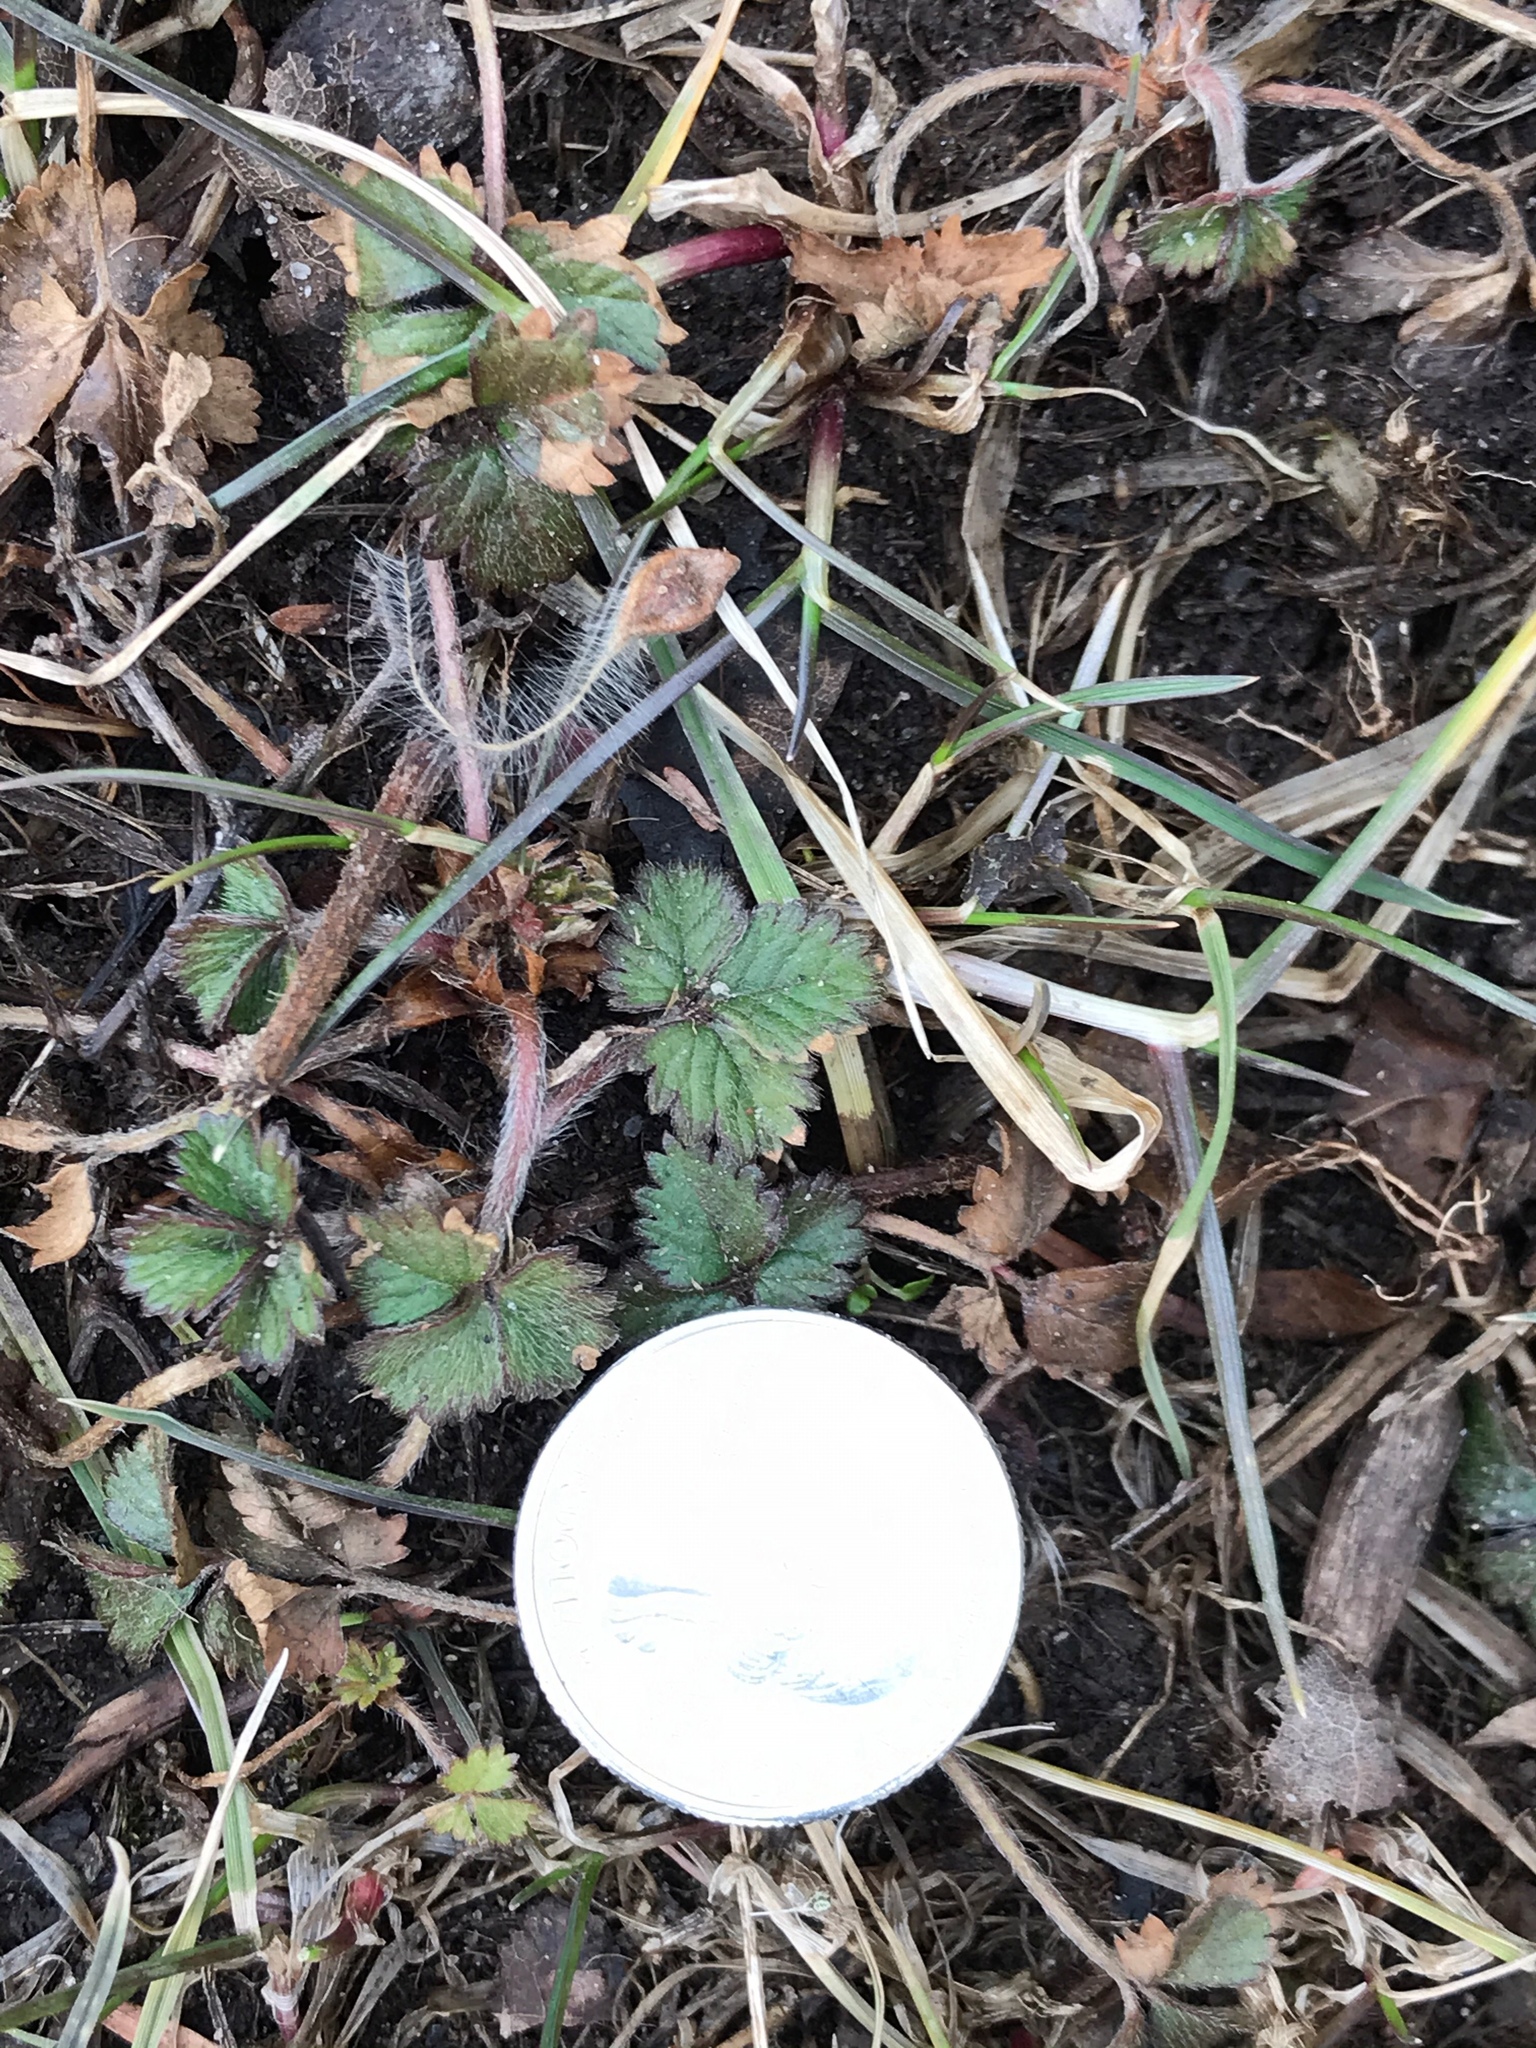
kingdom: Plantae
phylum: Tracheophyta
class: Magnoliopsida
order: Rosales
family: Rosaceae
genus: Potentilla
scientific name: Potentilla indica
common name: Yellow-flowered strawberry
